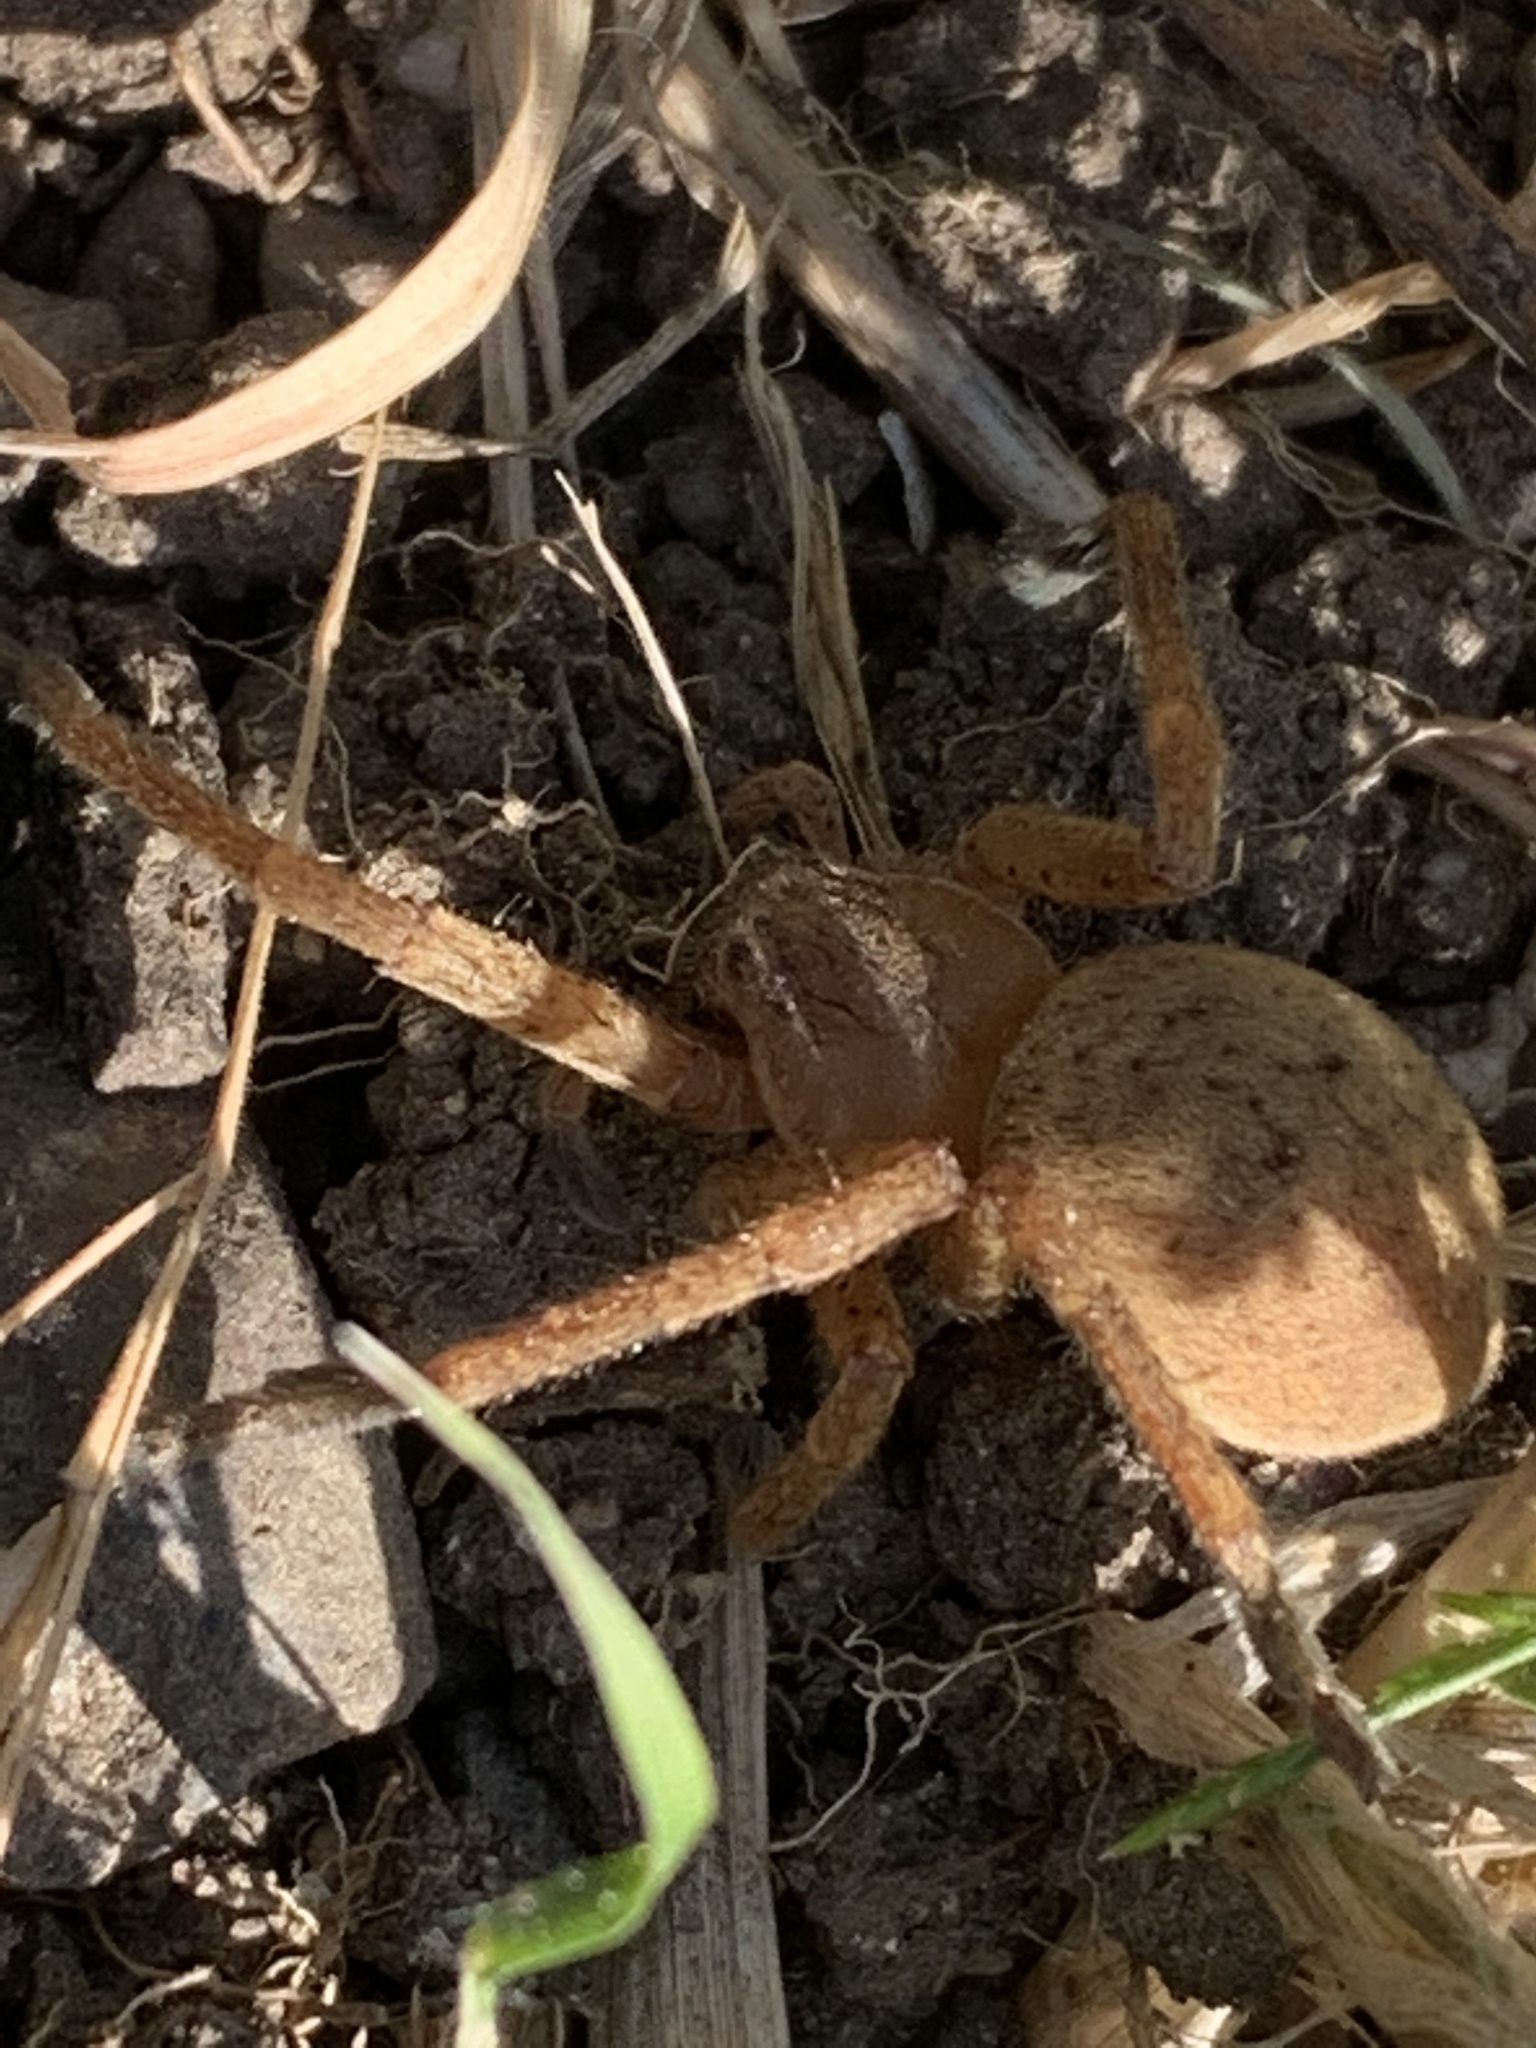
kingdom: Animalia
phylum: Arthropoda
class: Arachnida
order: Araneae
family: Sparassidae
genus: Olios
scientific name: Olios argelasius
